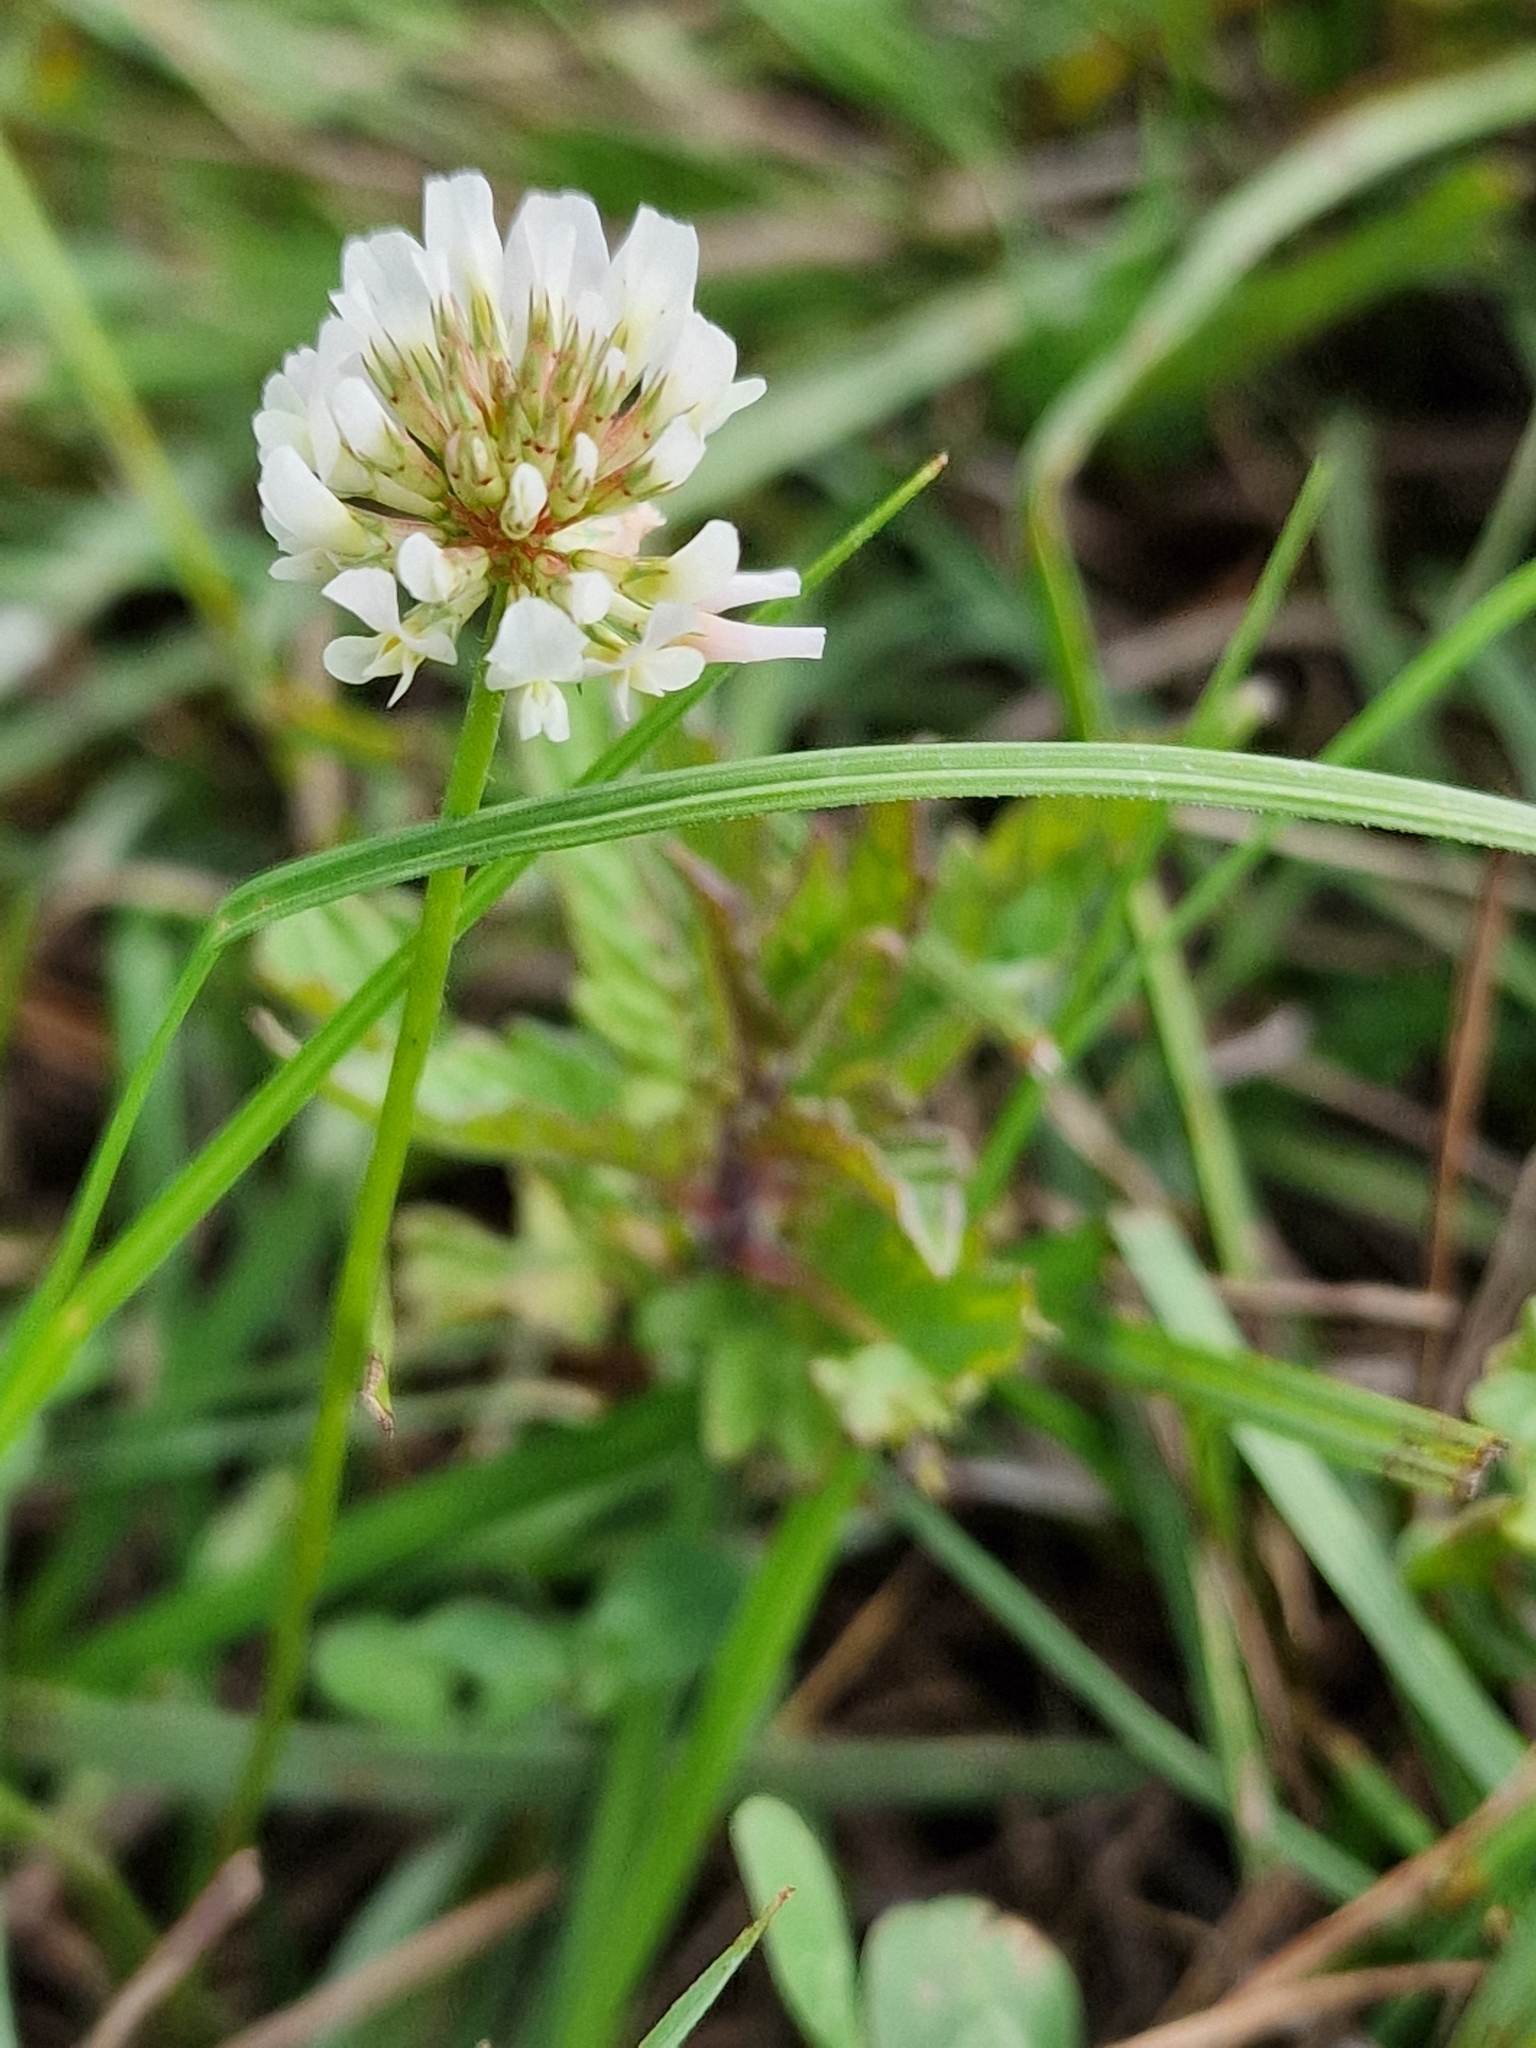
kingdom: Plantae
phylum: Tracheophyta
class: Magnoliopsida
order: Fabales
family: Fabaceae
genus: Trifolium
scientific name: Trifolium repens
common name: White clover
